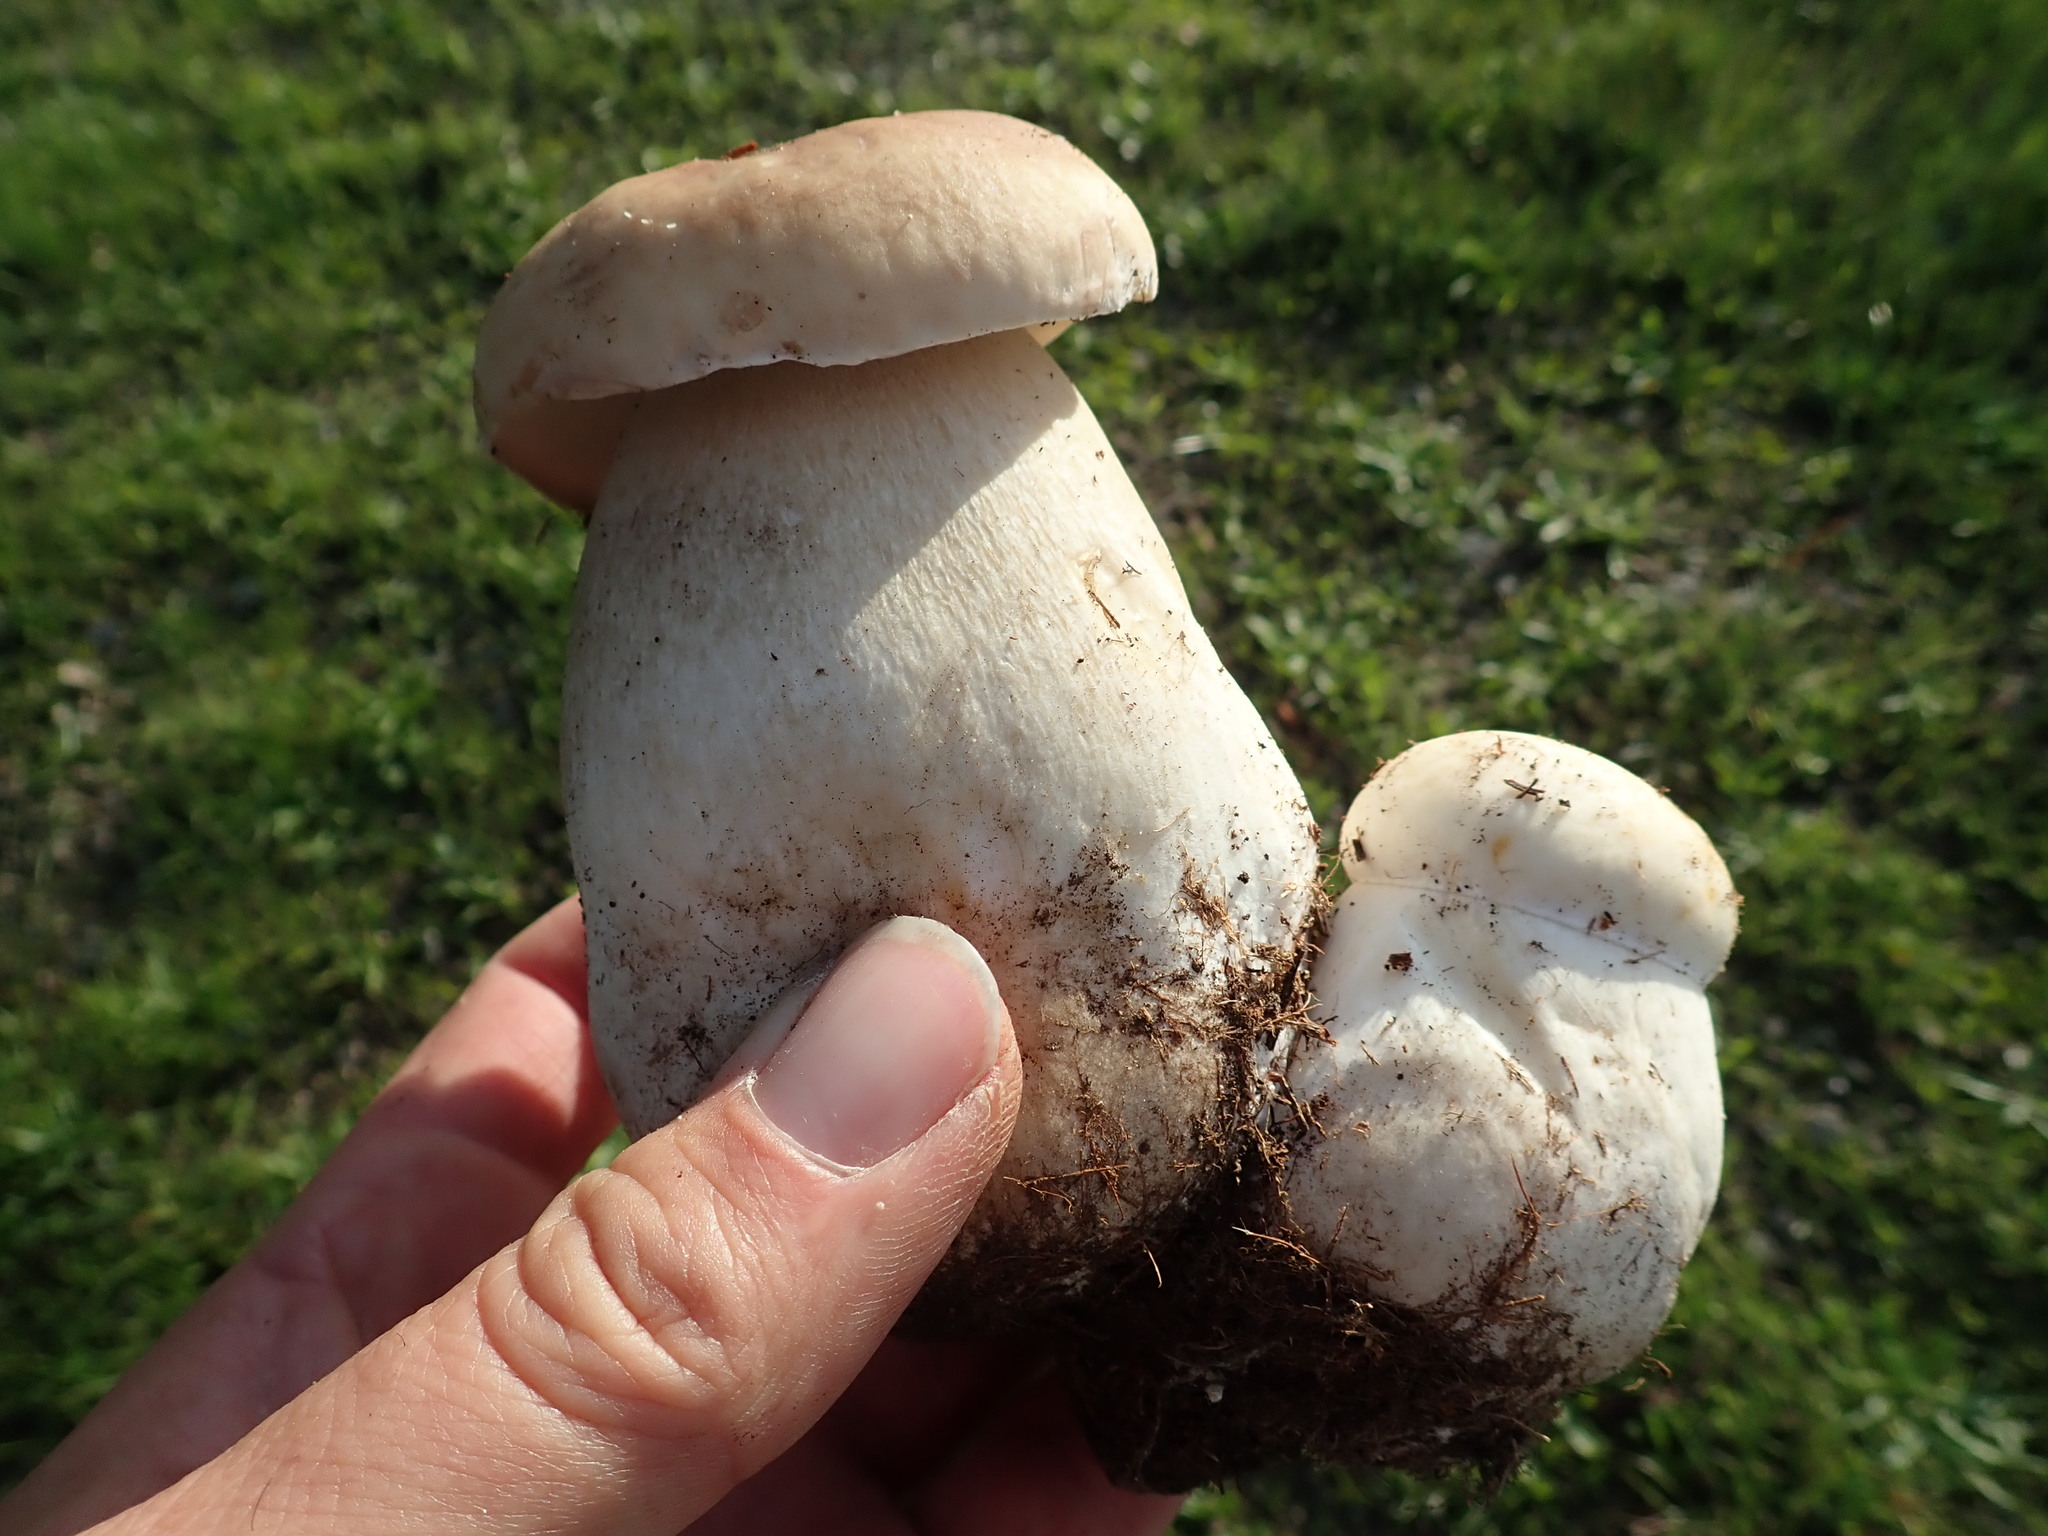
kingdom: Fungi
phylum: Basidiomycota
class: Agaricomycetes
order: Boletales
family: Boletaceae
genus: Boletus
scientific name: Boletus edulis
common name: Cep
